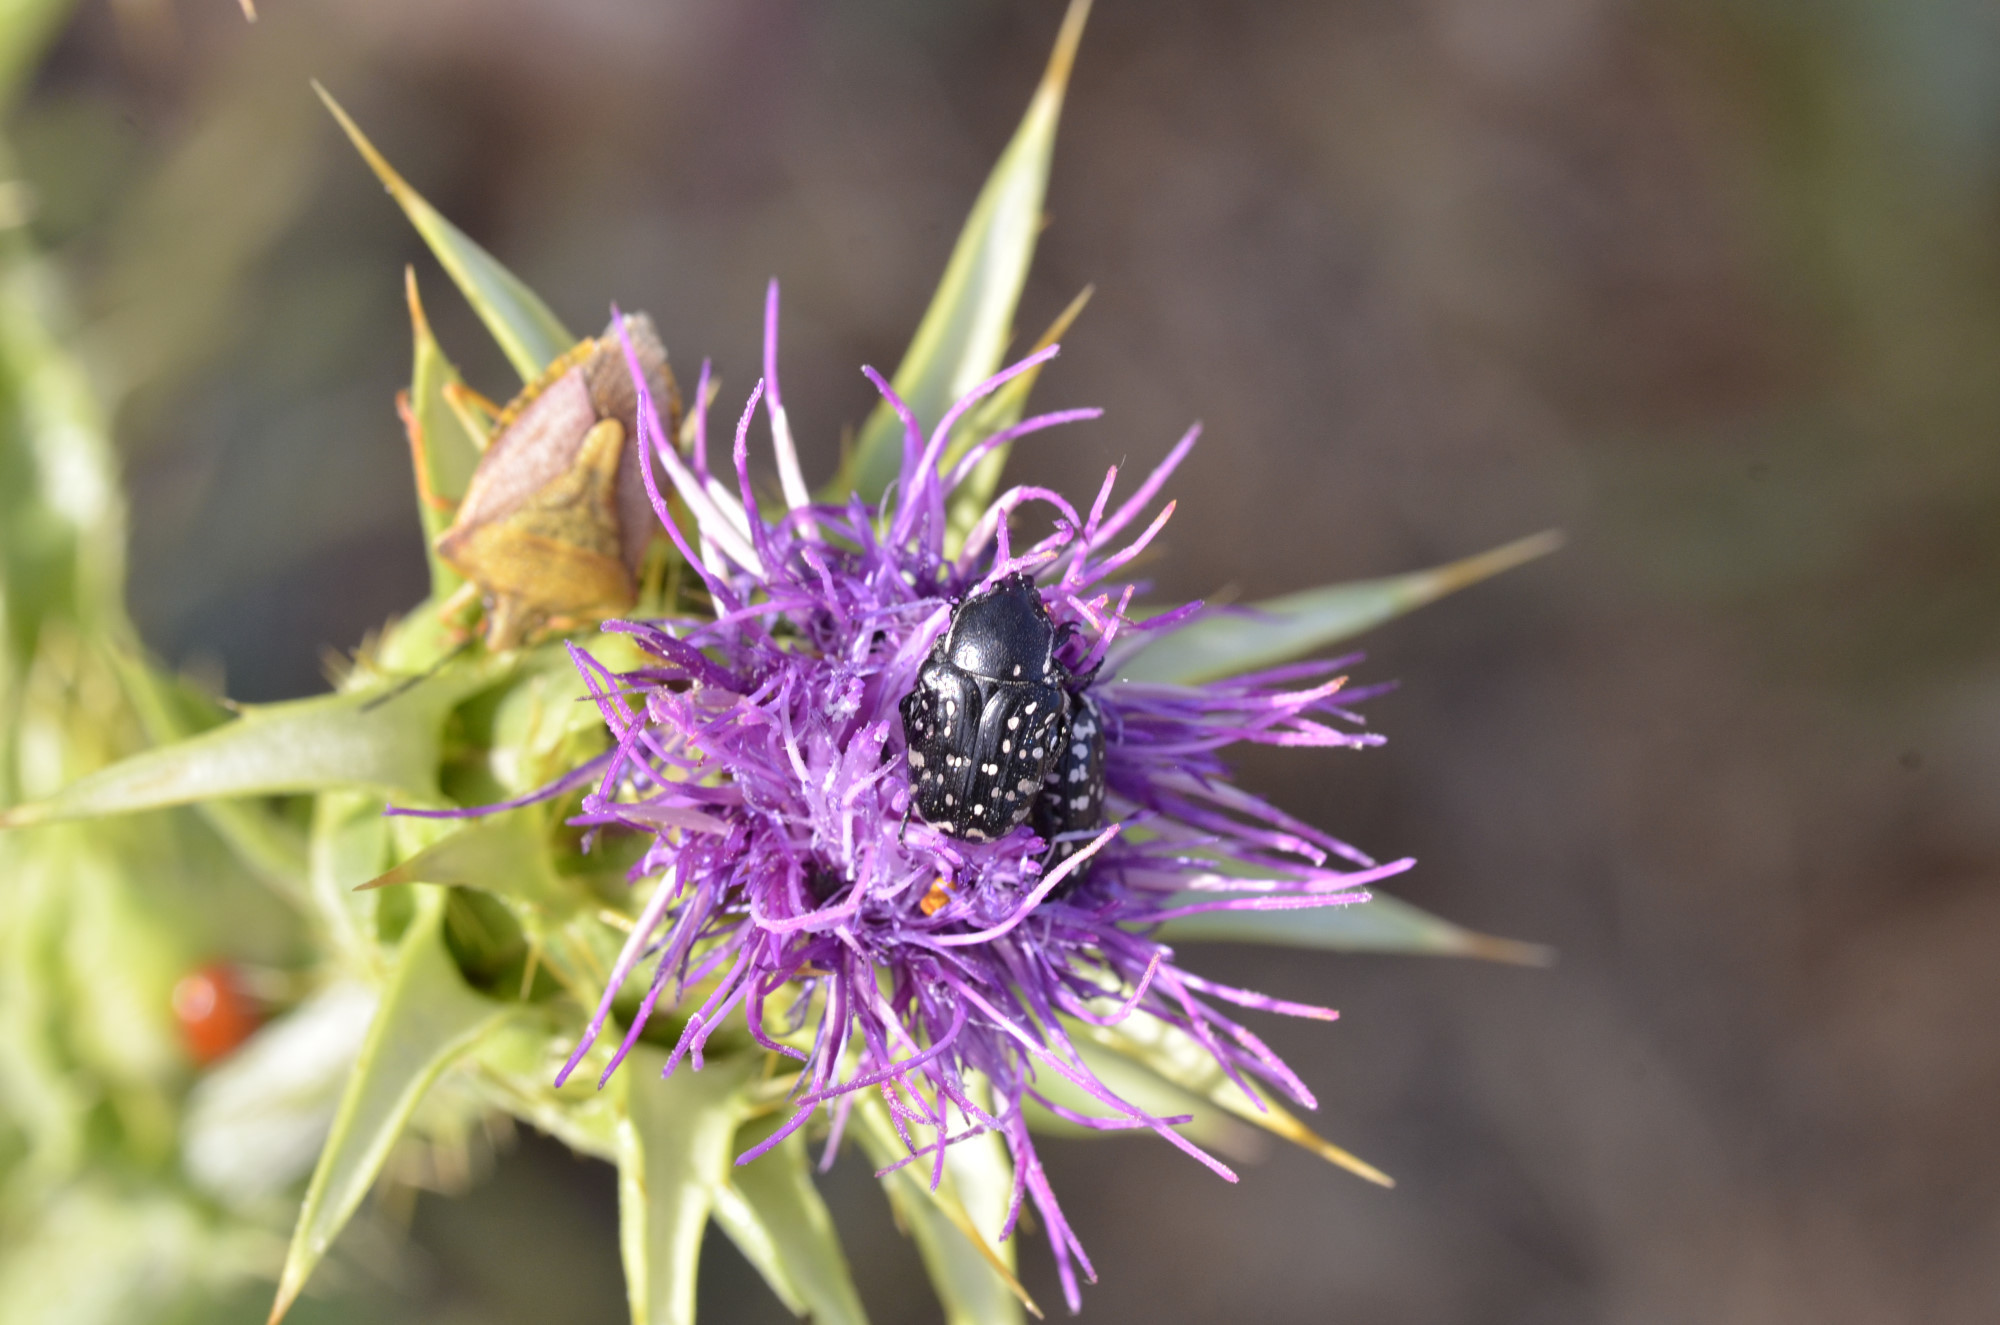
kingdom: Animalia
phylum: Arthropoda
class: Insecta
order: Coleoptera
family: Scarabaeidae
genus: Oxythyrea
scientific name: Oxythyrea cinctella
